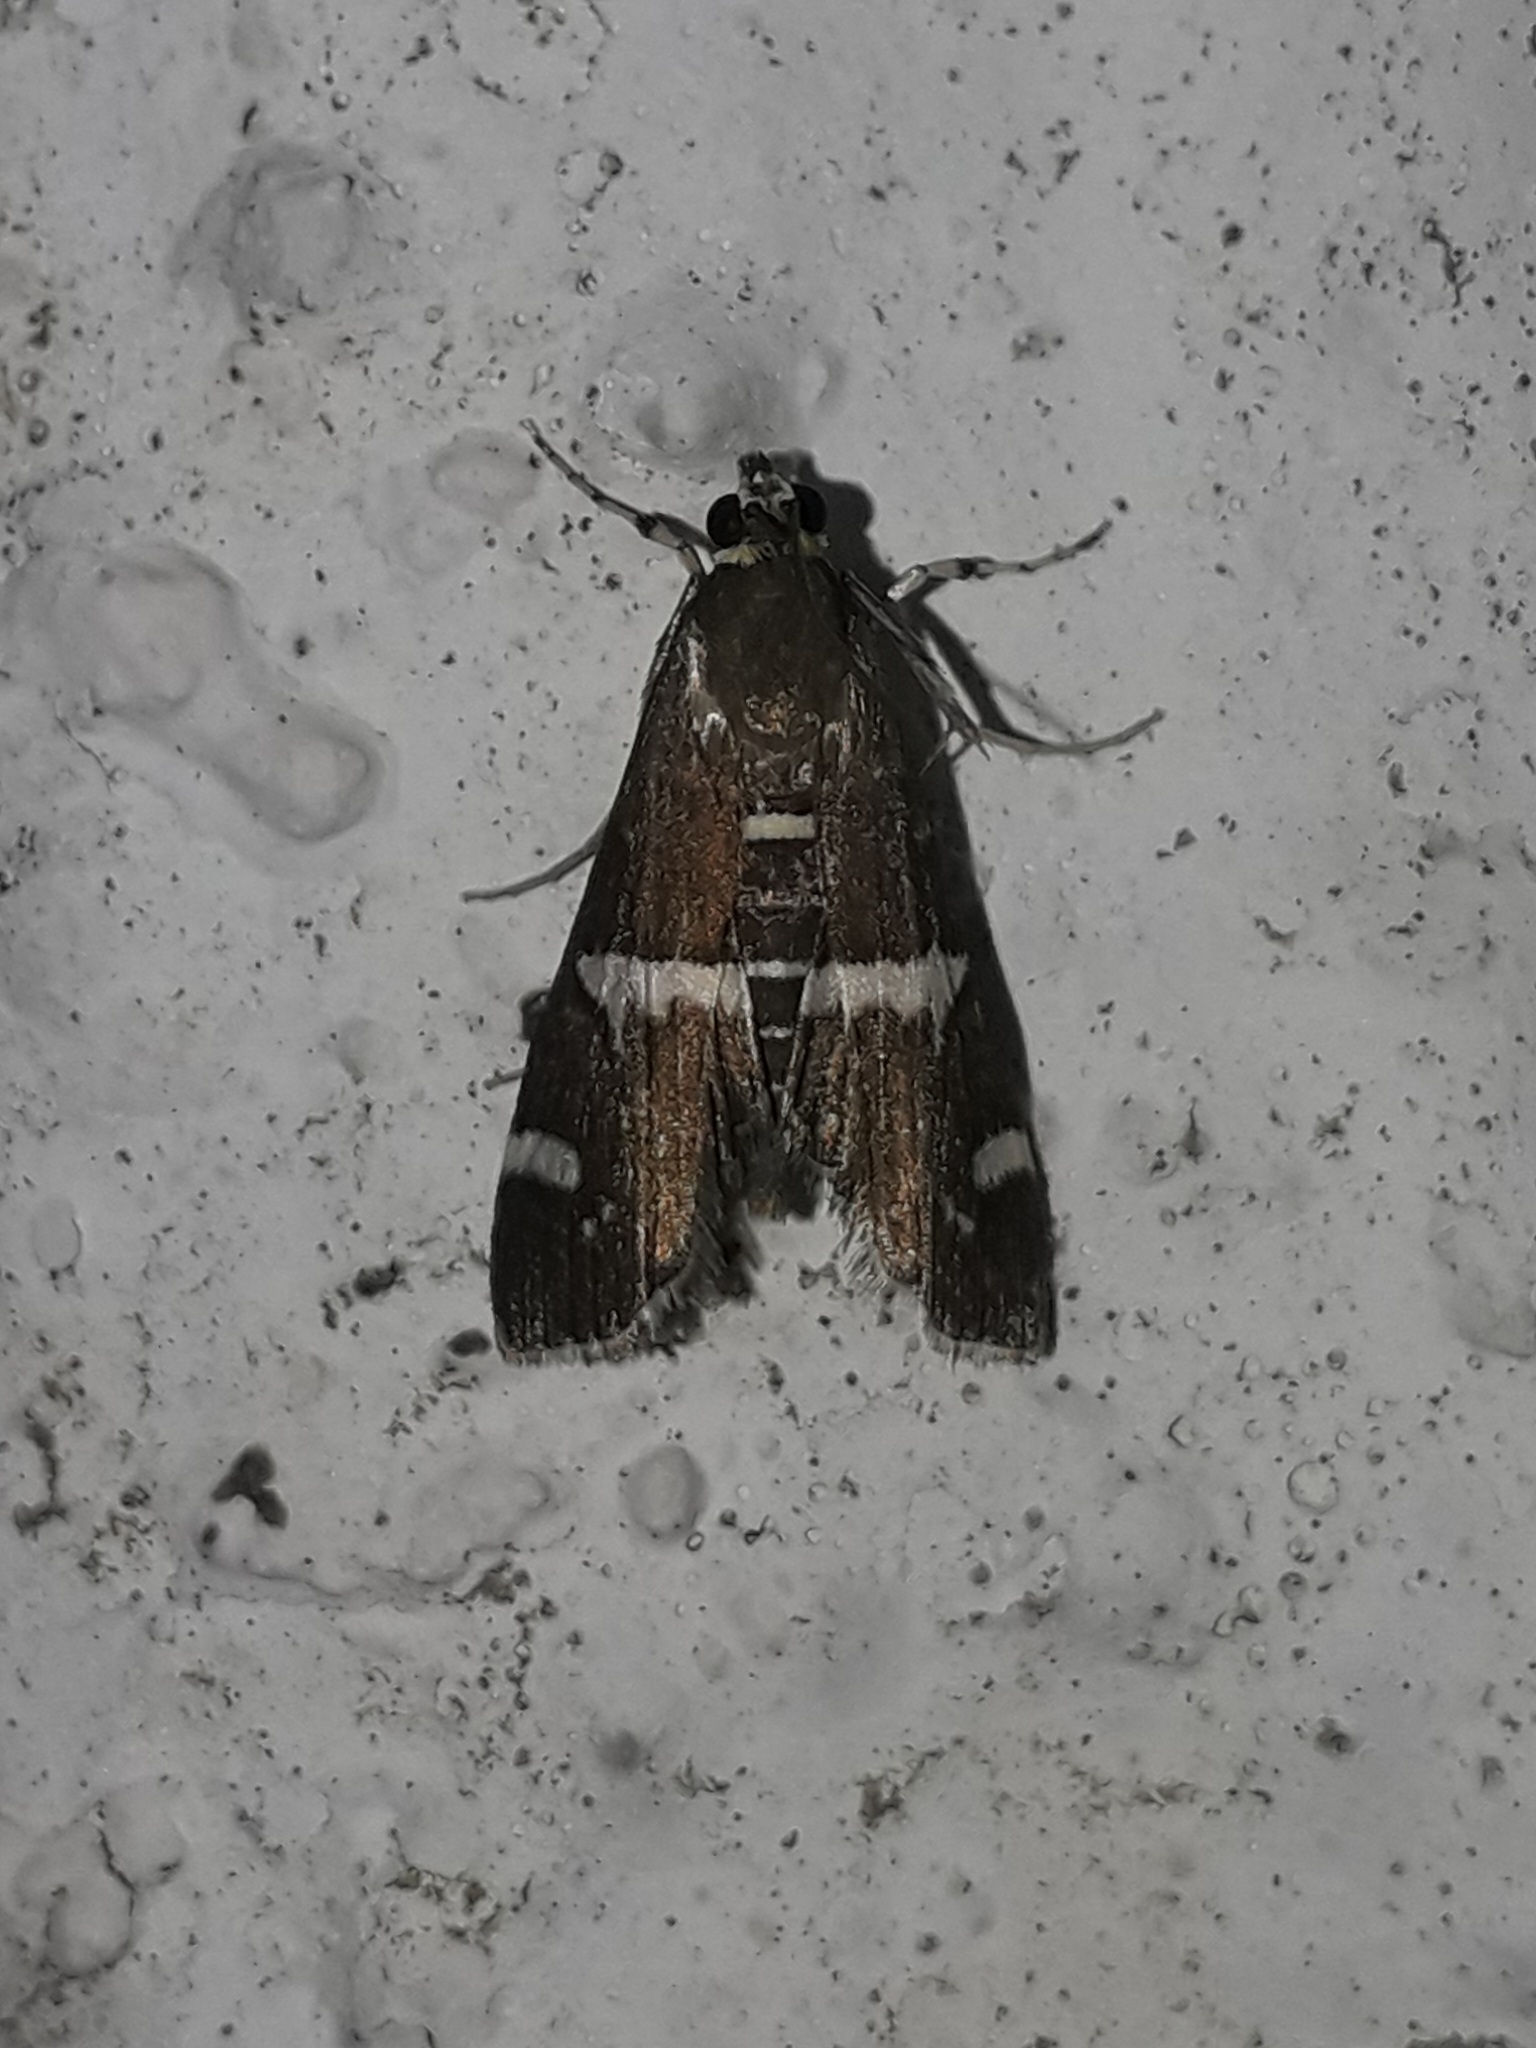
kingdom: Animalia
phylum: Arthropoda
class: Insecta
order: Lepidoptera
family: Crambidae
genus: Spoladea
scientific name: Spoladea recurvalis
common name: Beet webworm moth
